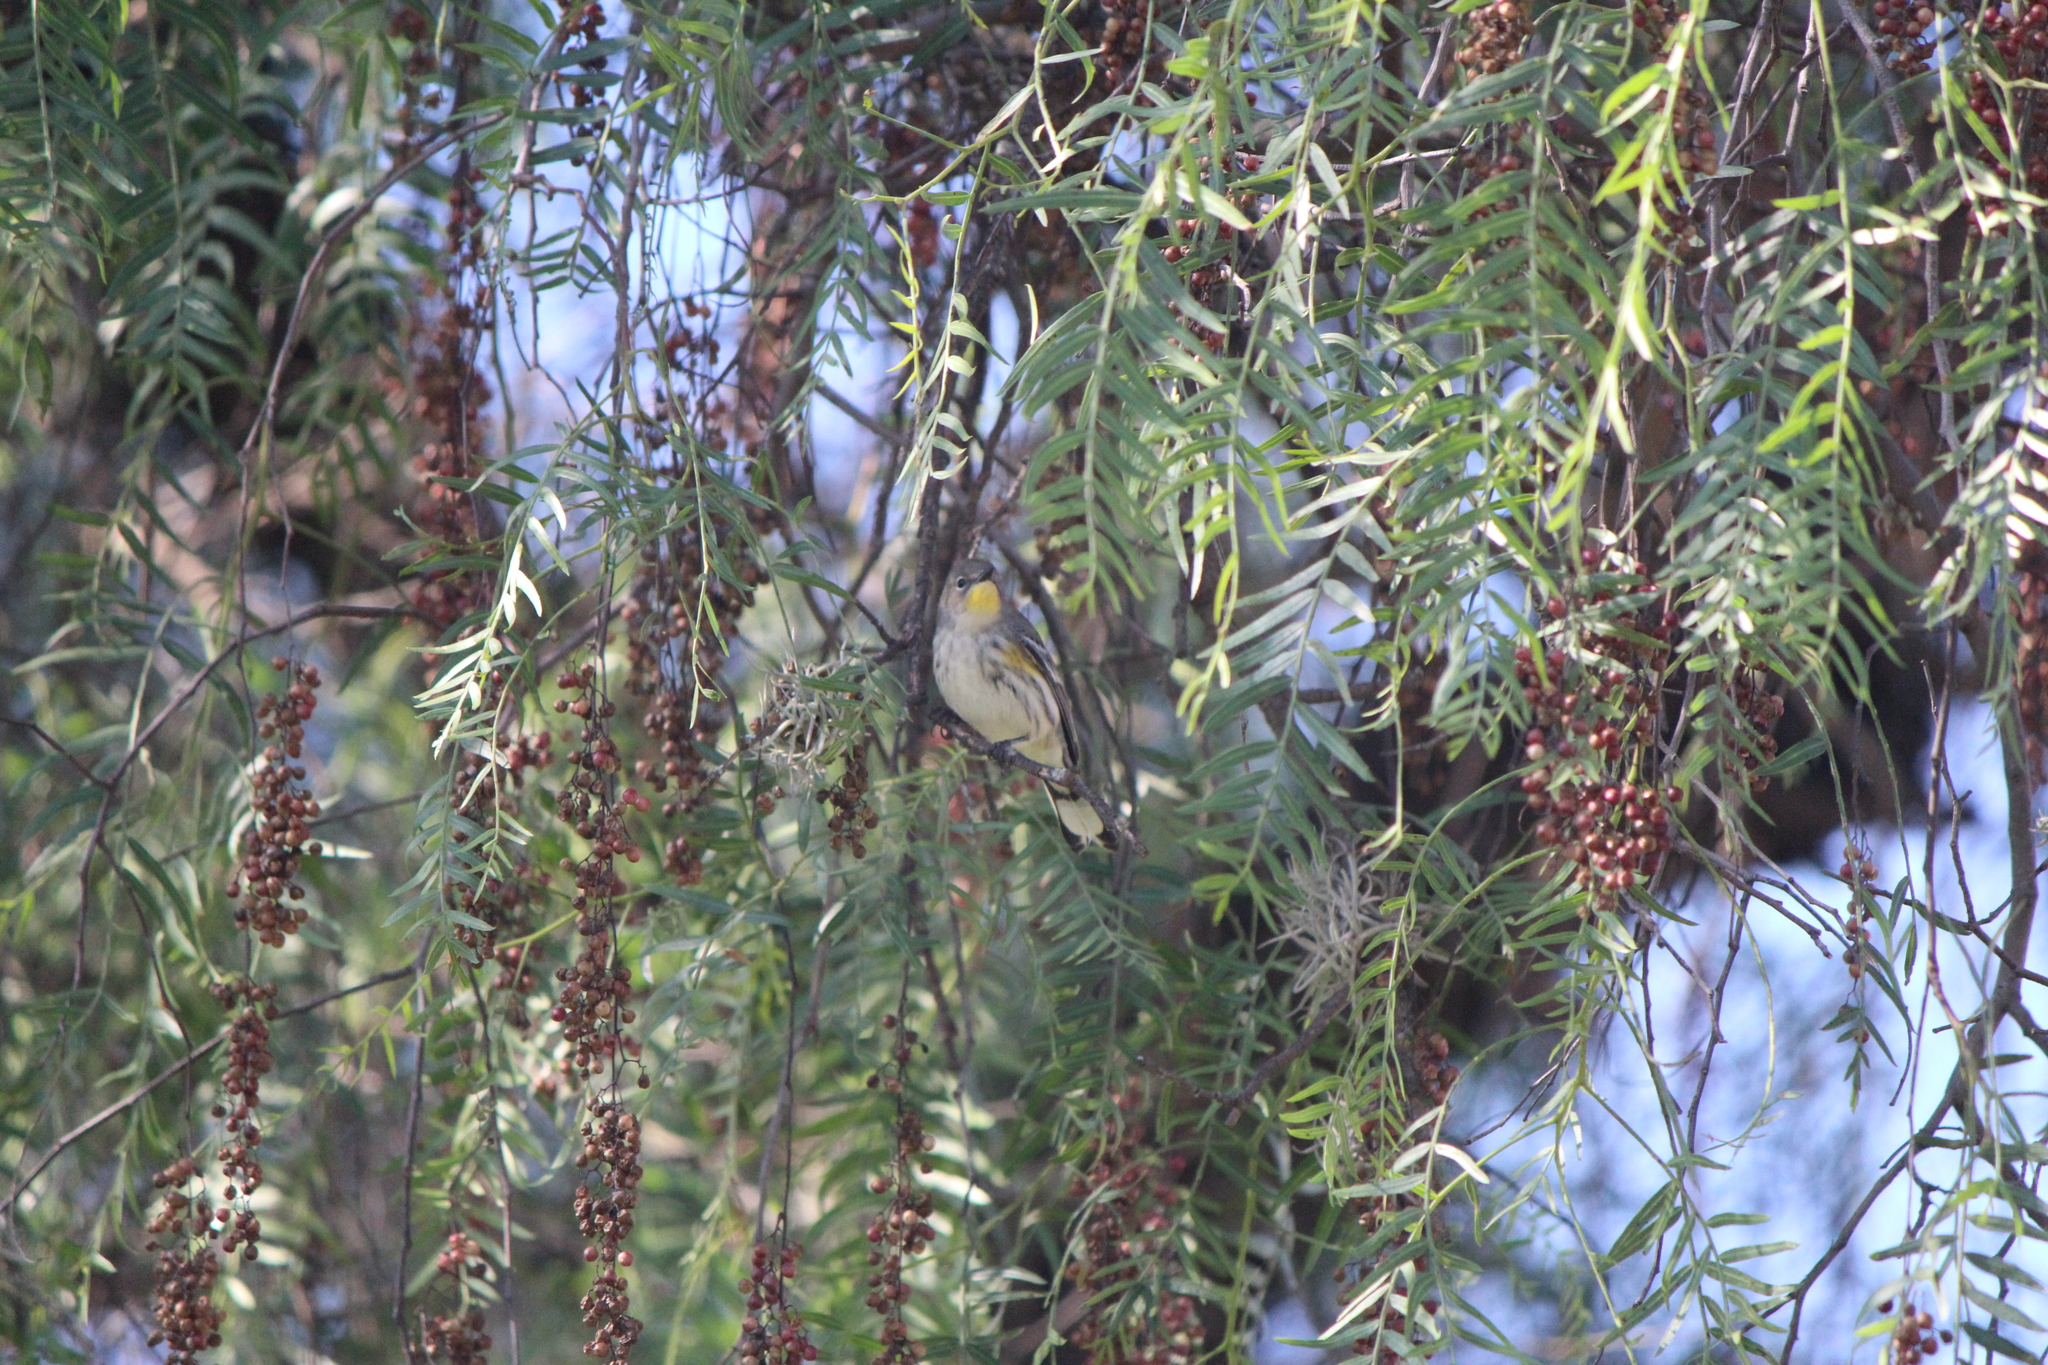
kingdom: Animalia
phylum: Chordata
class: Aves
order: Passeriformes
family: Parulidae
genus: Setophaga
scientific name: Setophaga auduboni
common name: Audubon's warbler
